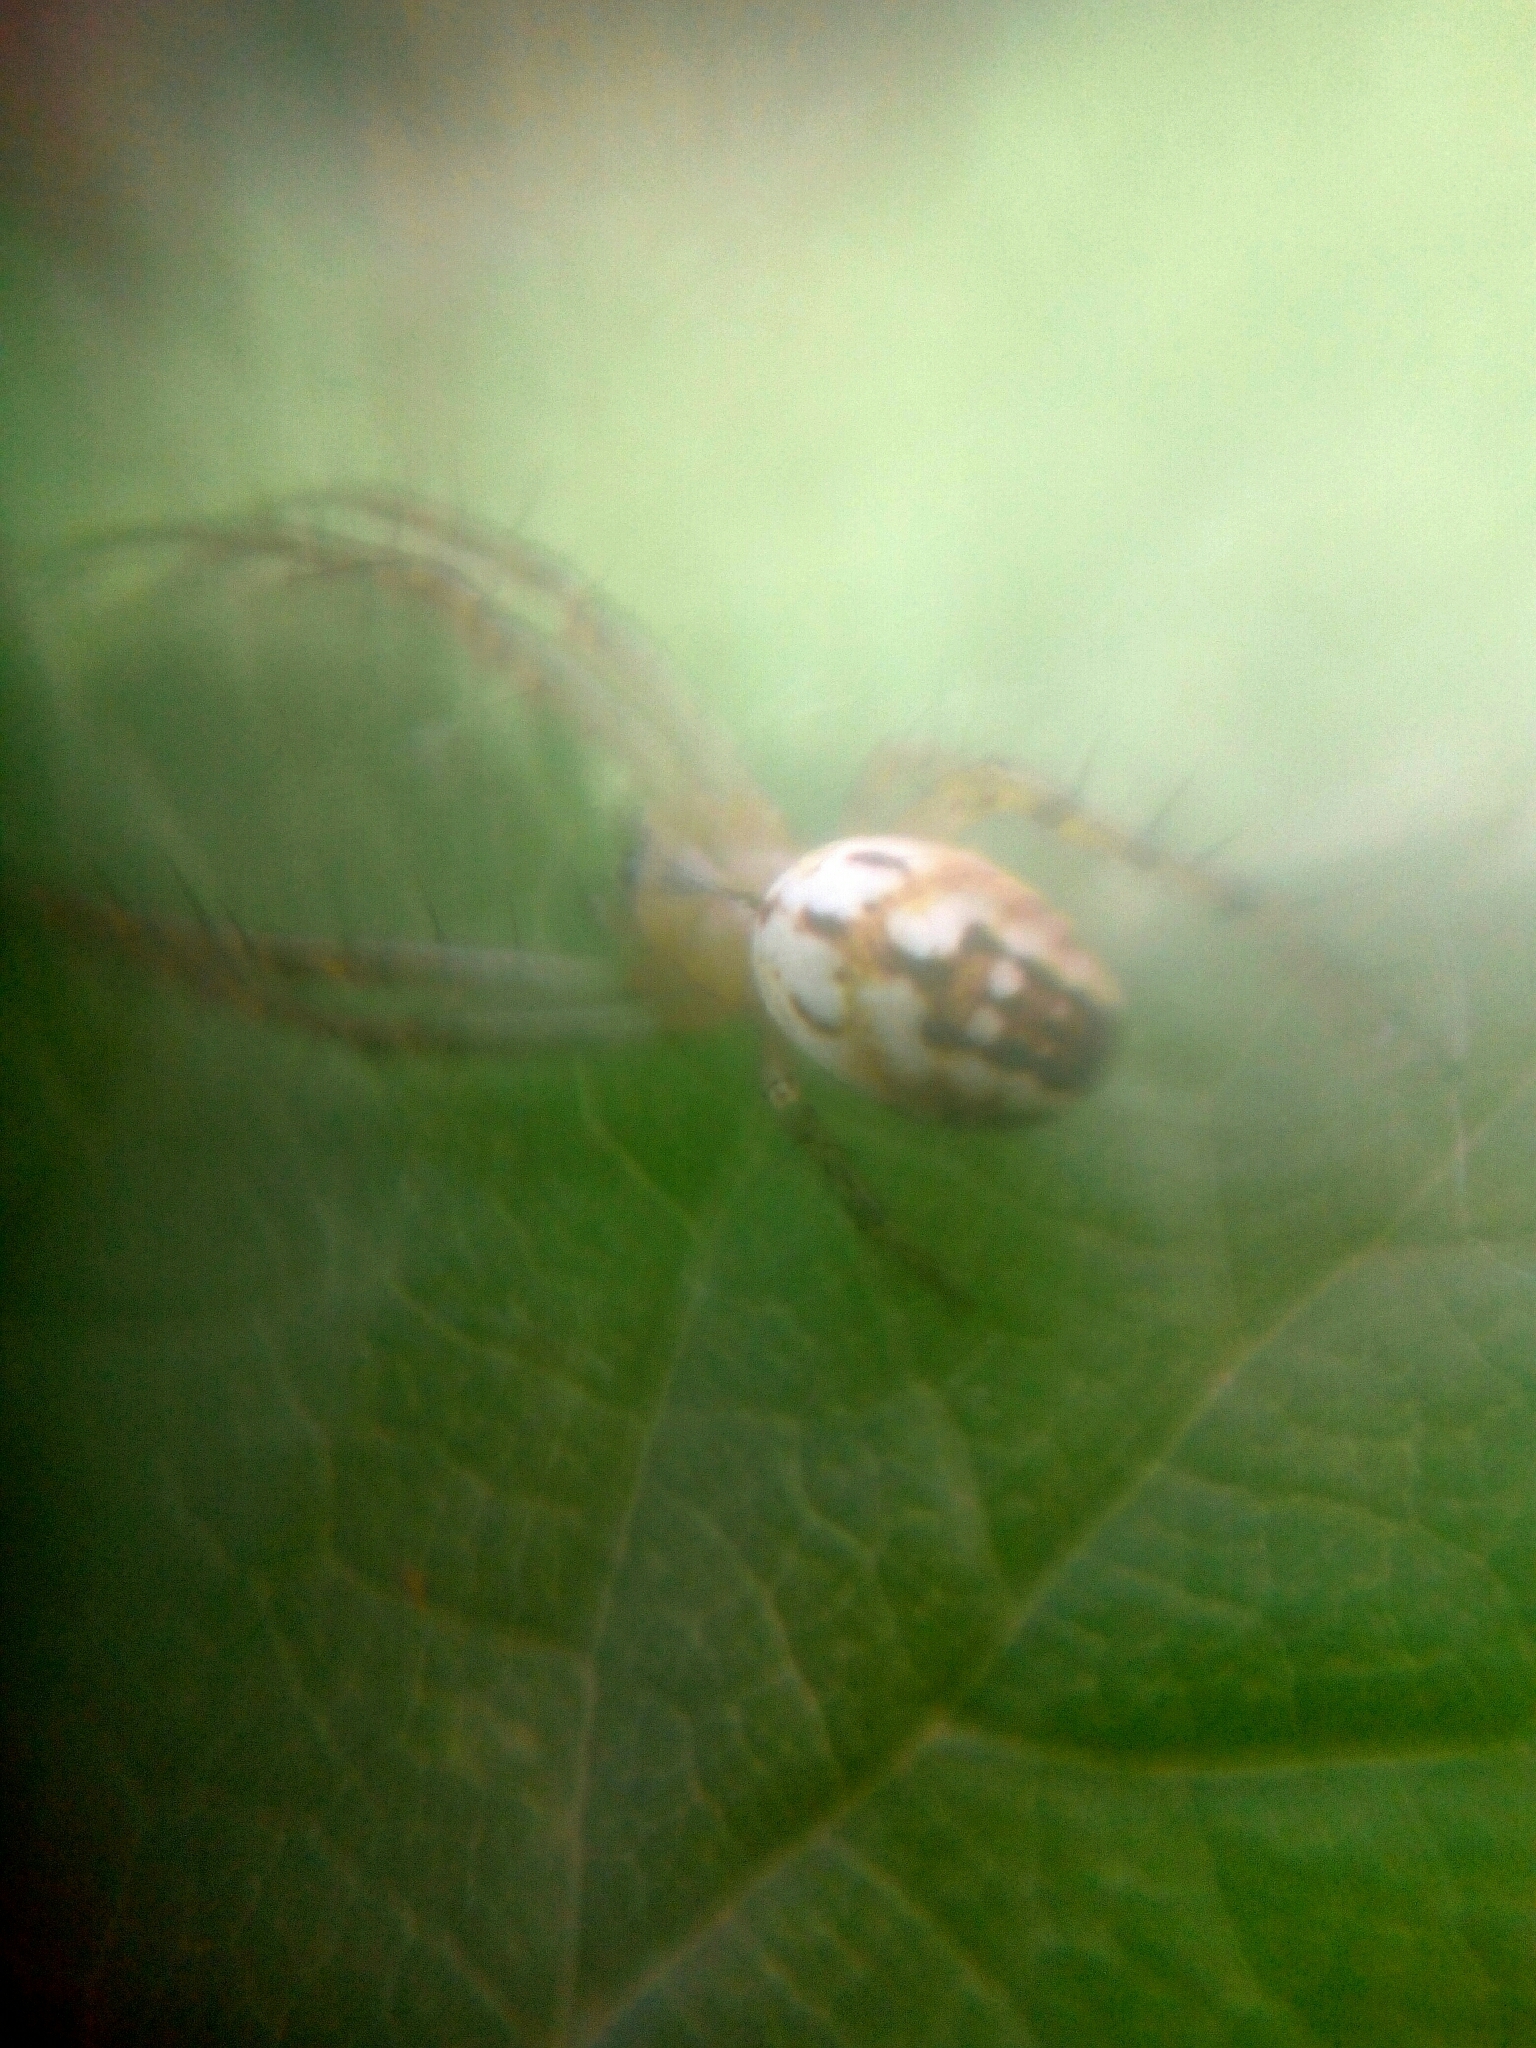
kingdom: Animalia
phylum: Arthropoda
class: Arachnida
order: Araneae
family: Araneidae
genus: Mangora
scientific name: Mangora acalypha
